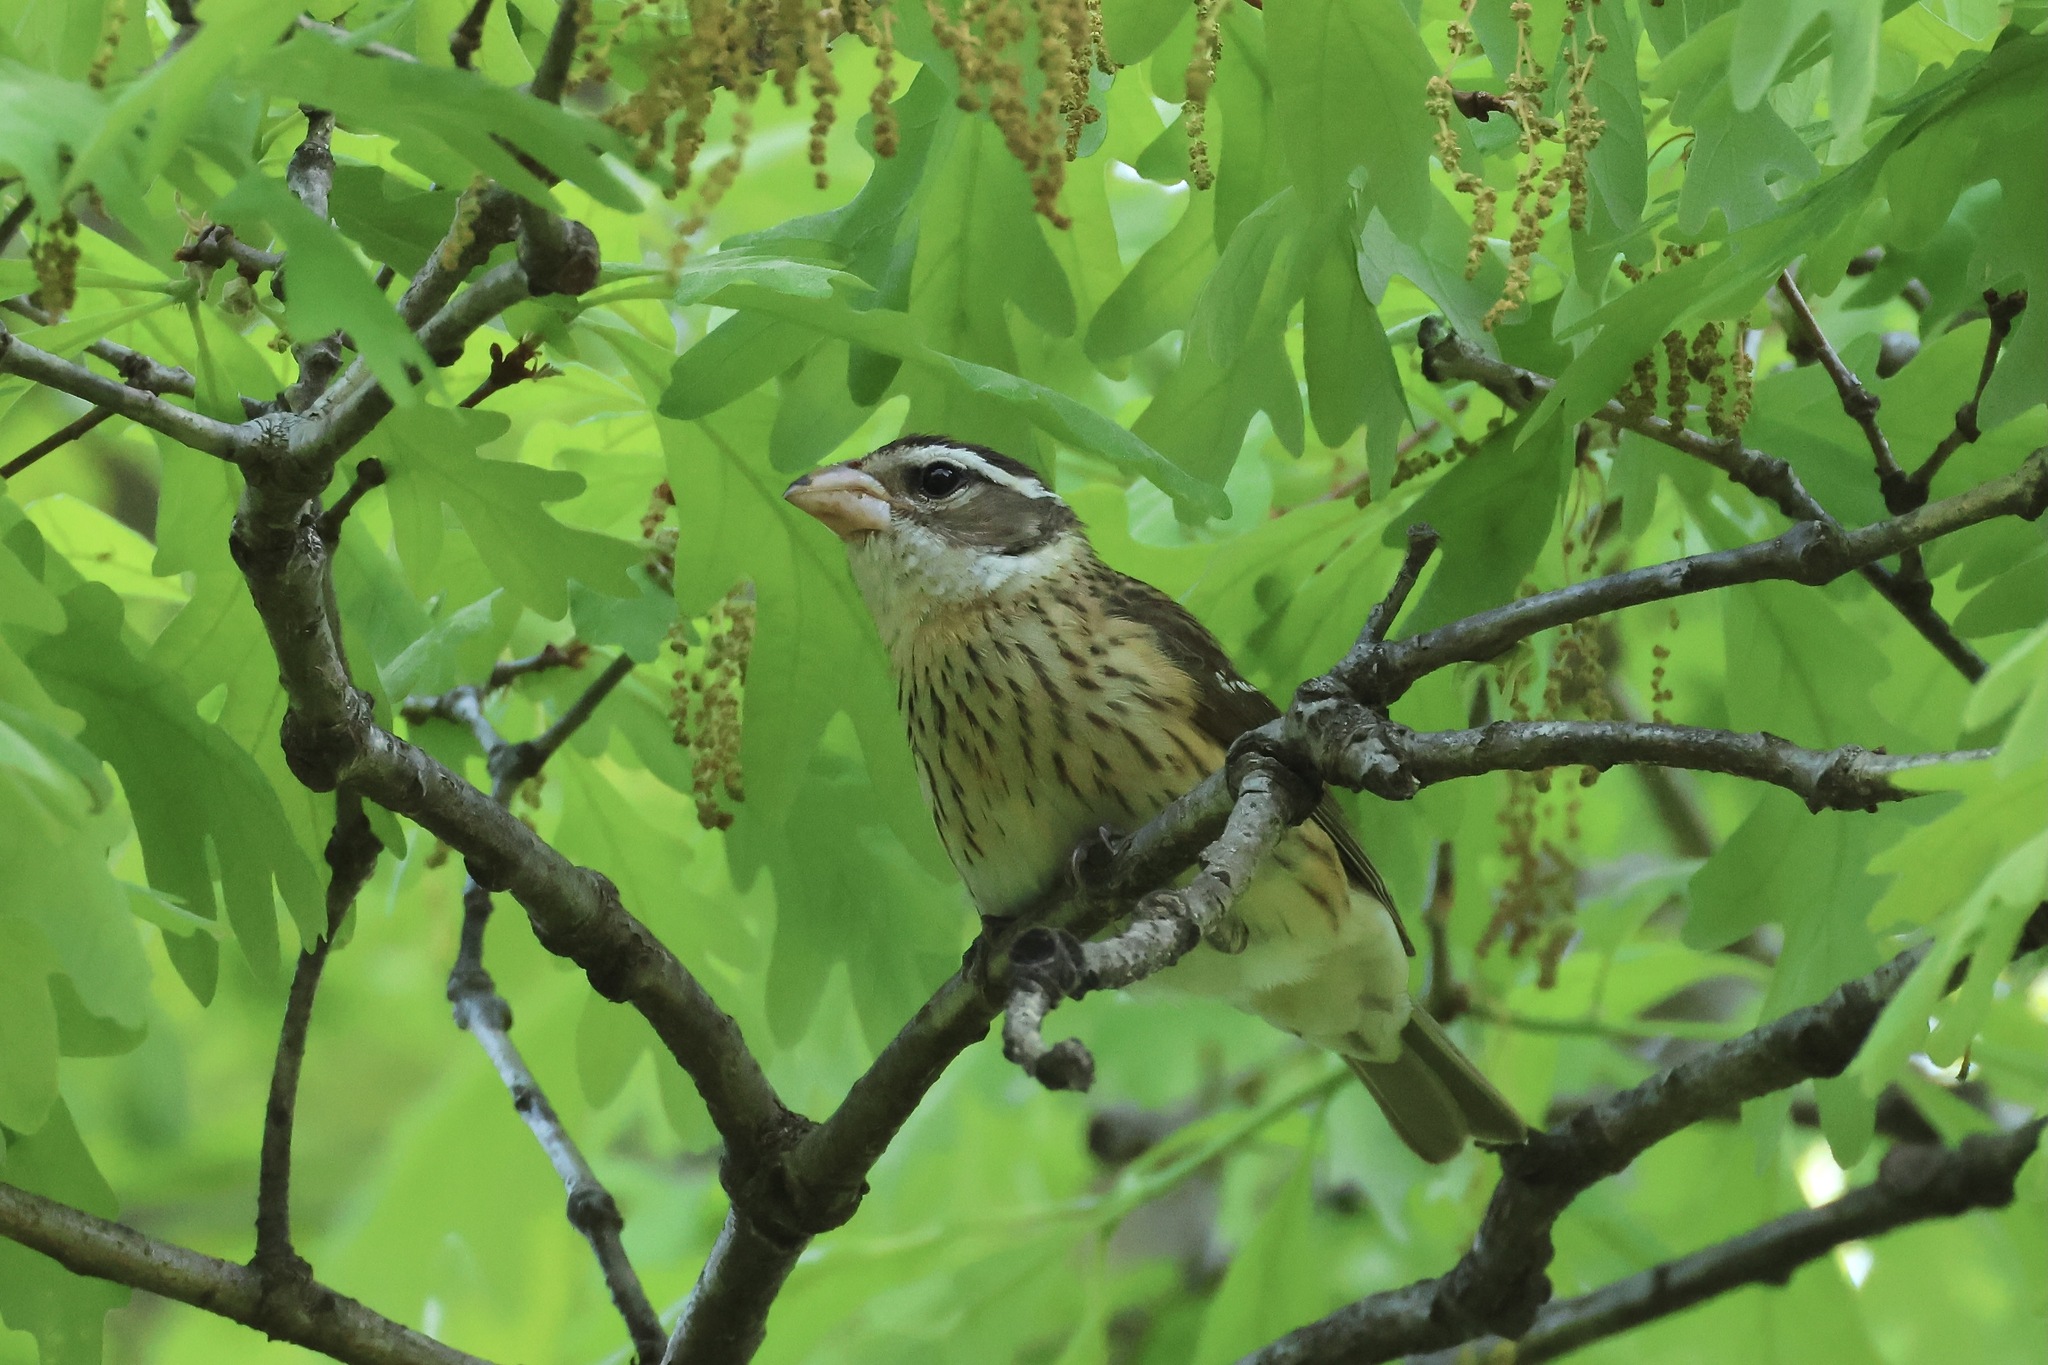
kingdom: Animalia
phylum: Chordata
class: Aves
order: Passeriformes
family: Cardinalidae
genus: Pheucticus
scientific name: Pheucticus ludovicianus
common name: Rose-breasted grosbeak
